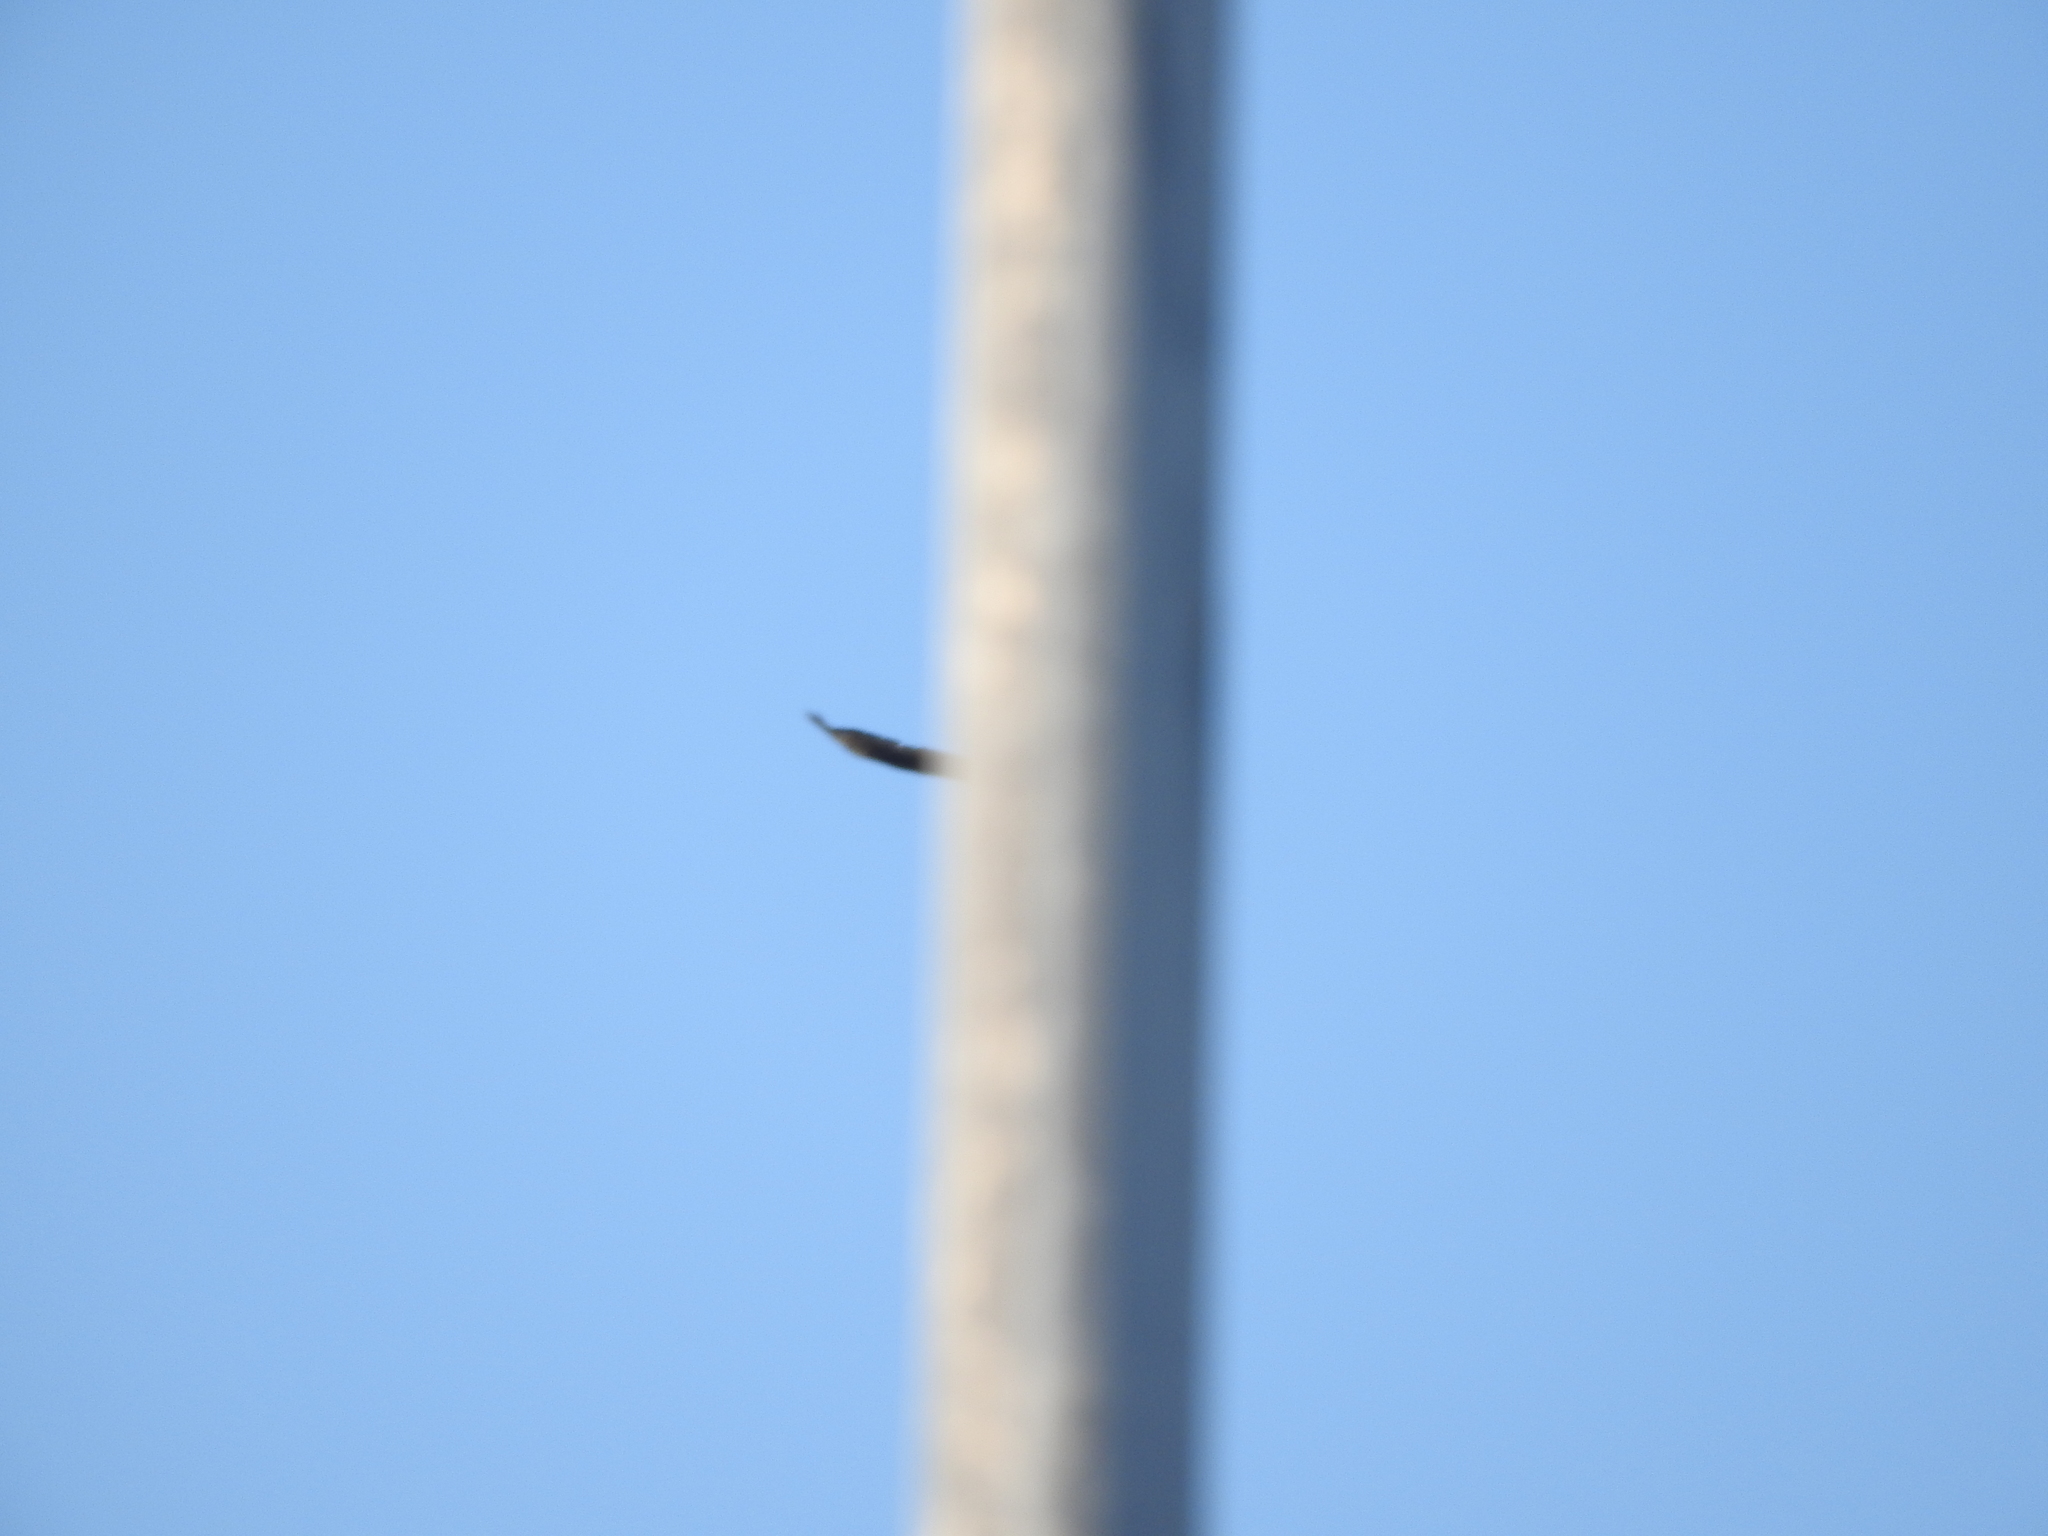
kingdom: Animalia
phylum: Chordata
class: Aves
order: Accipitriformes
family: Accipitridae
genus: Buteo
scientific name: Buteo albonotatus
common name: Zone-tailed hawk
